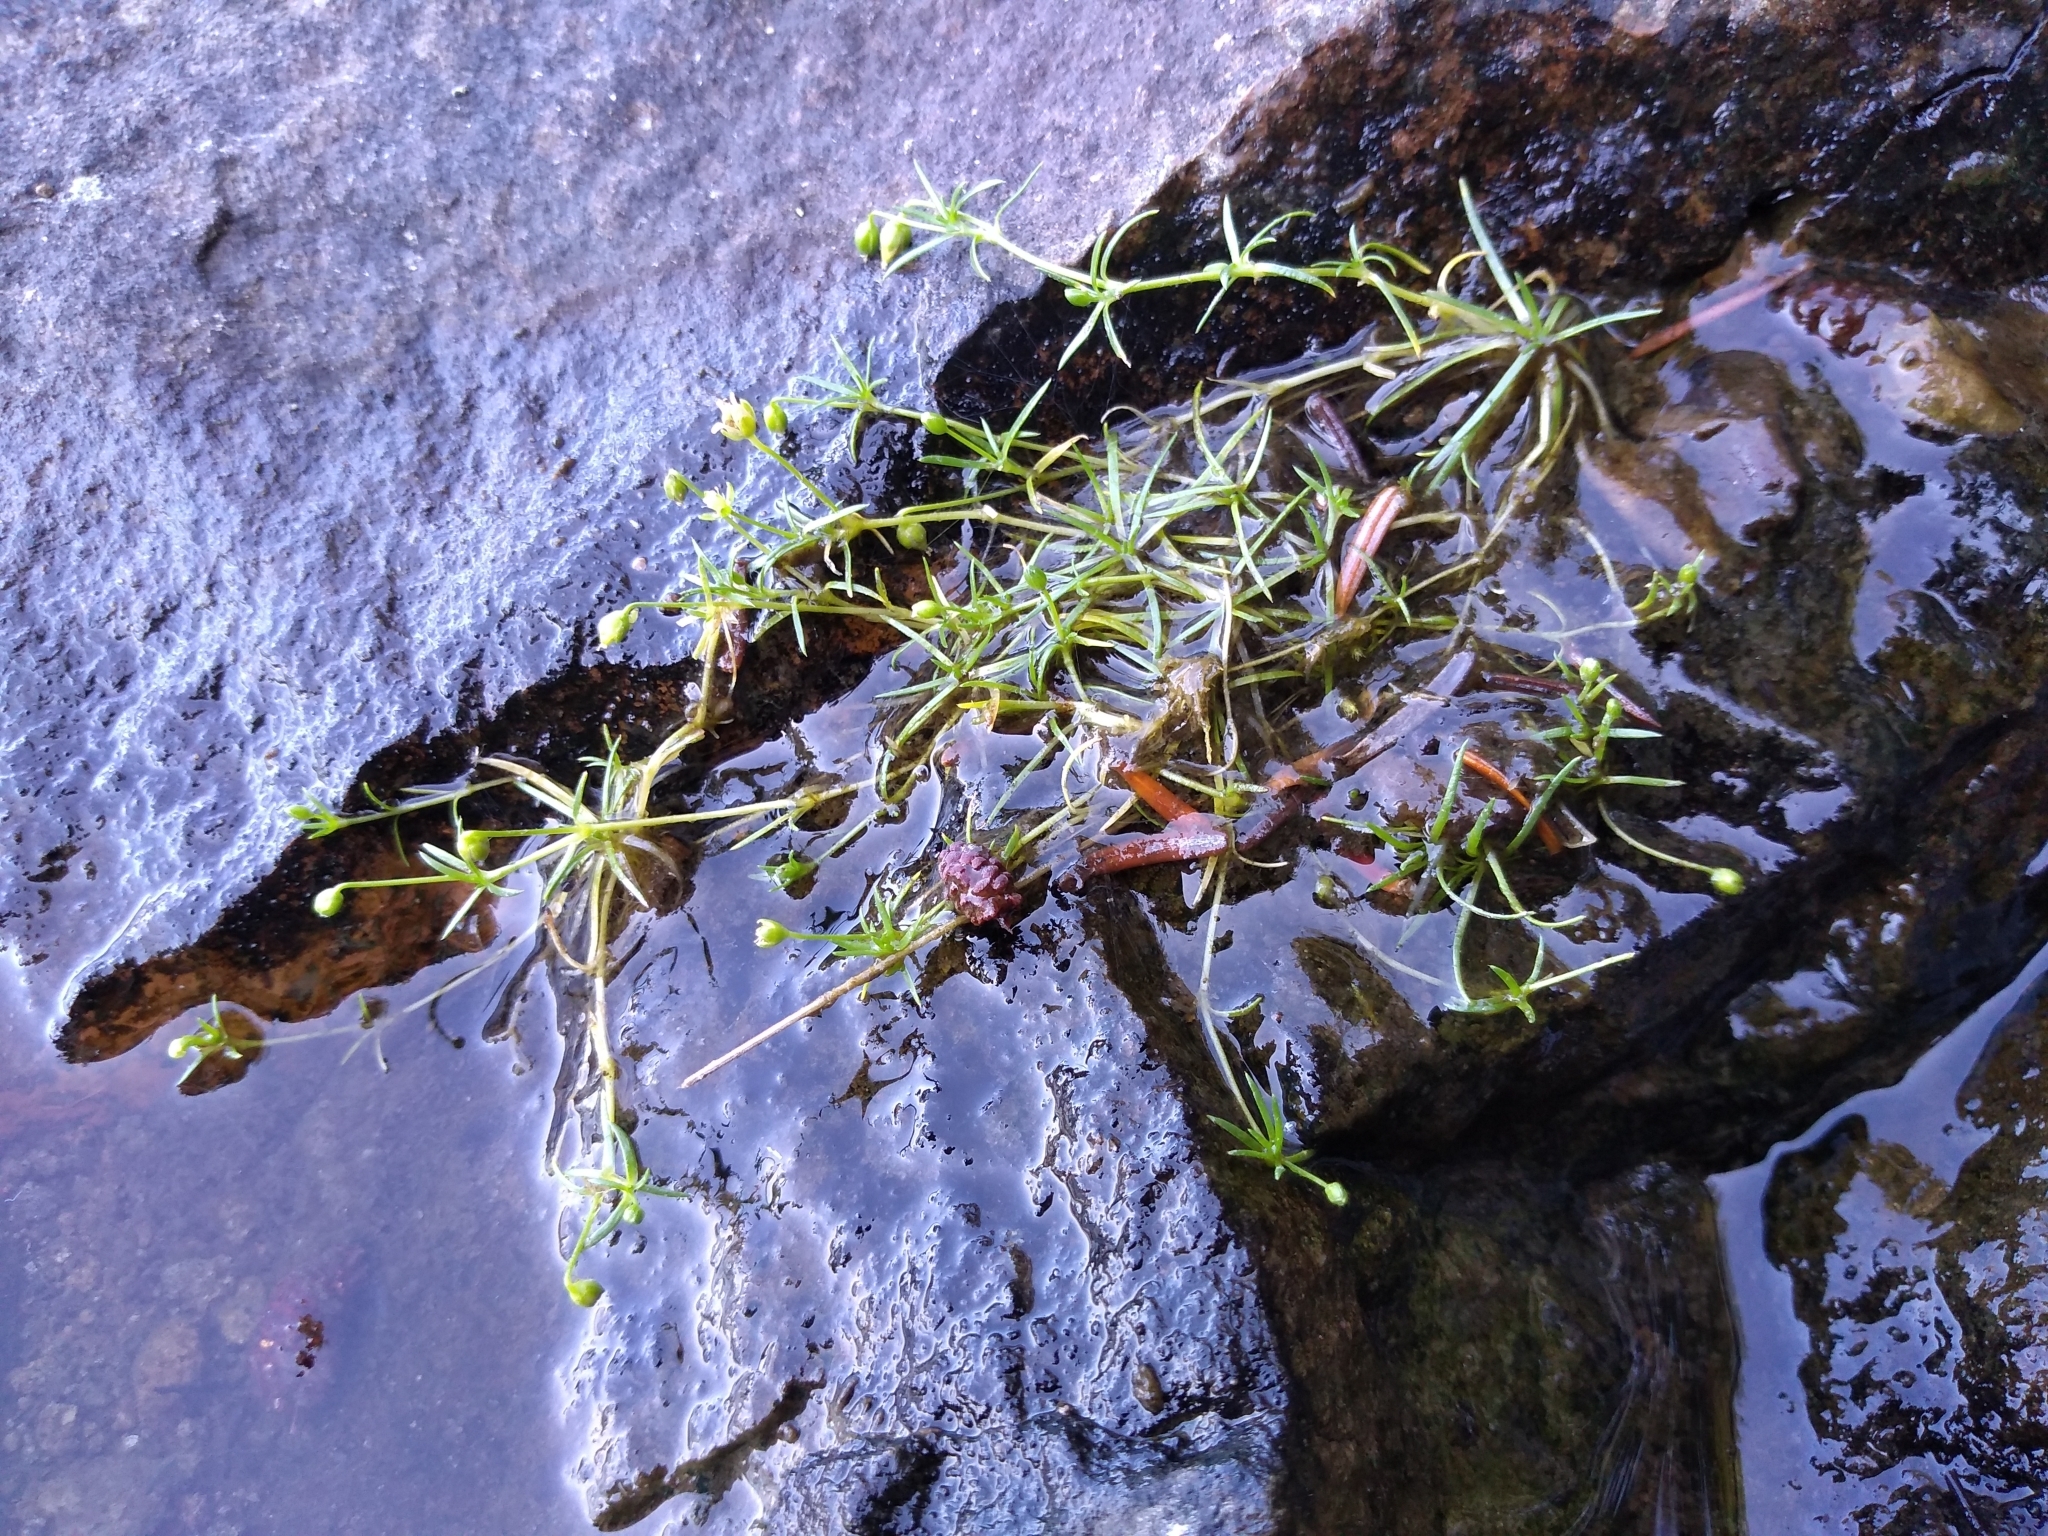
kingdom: Plantae
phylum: Tracheophyta
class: Magnoliopsida
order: Caryophyllales
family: Caryophyllaceae
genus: Sagina
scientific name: Sagina procumbens
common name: Procumbent pearlwort
